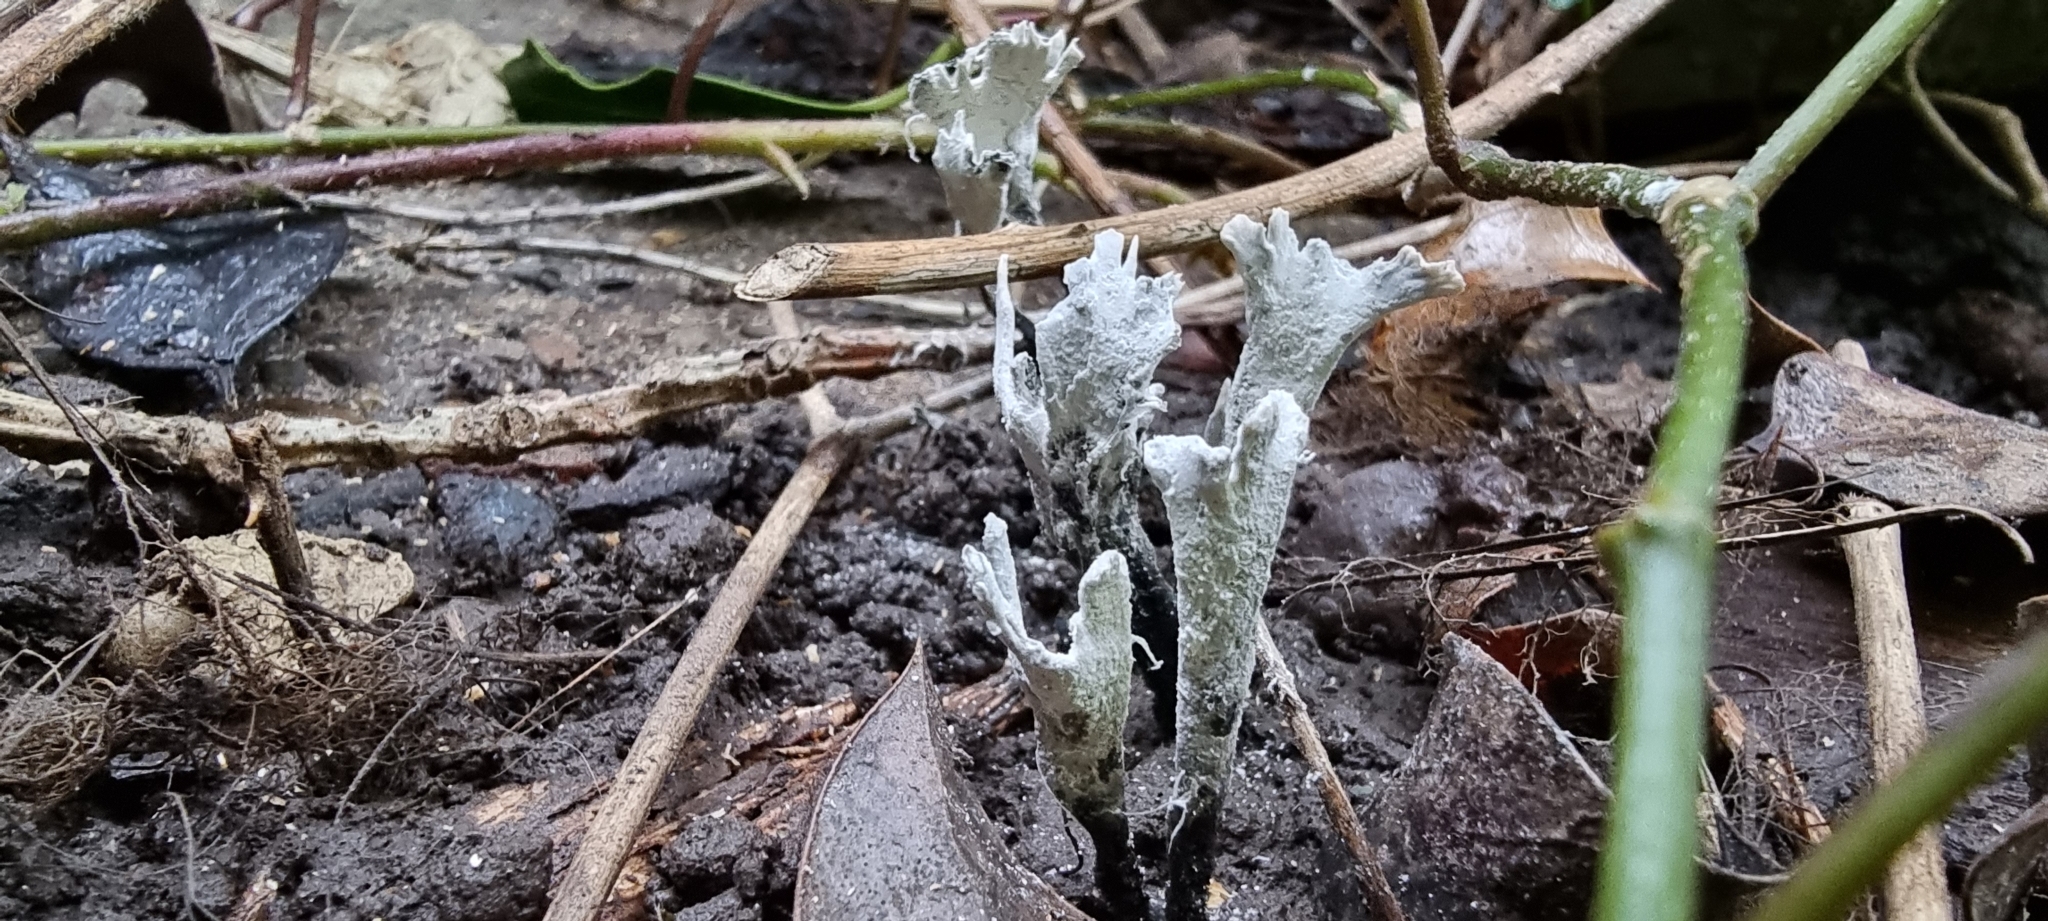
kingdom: Fungi
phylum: Ascomycota
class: Sordariomycetes
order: Xylariales
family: Xylariaceae
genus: Xylaria
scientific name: Xylaria hypoxylon
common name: Candle-snuff fungus
